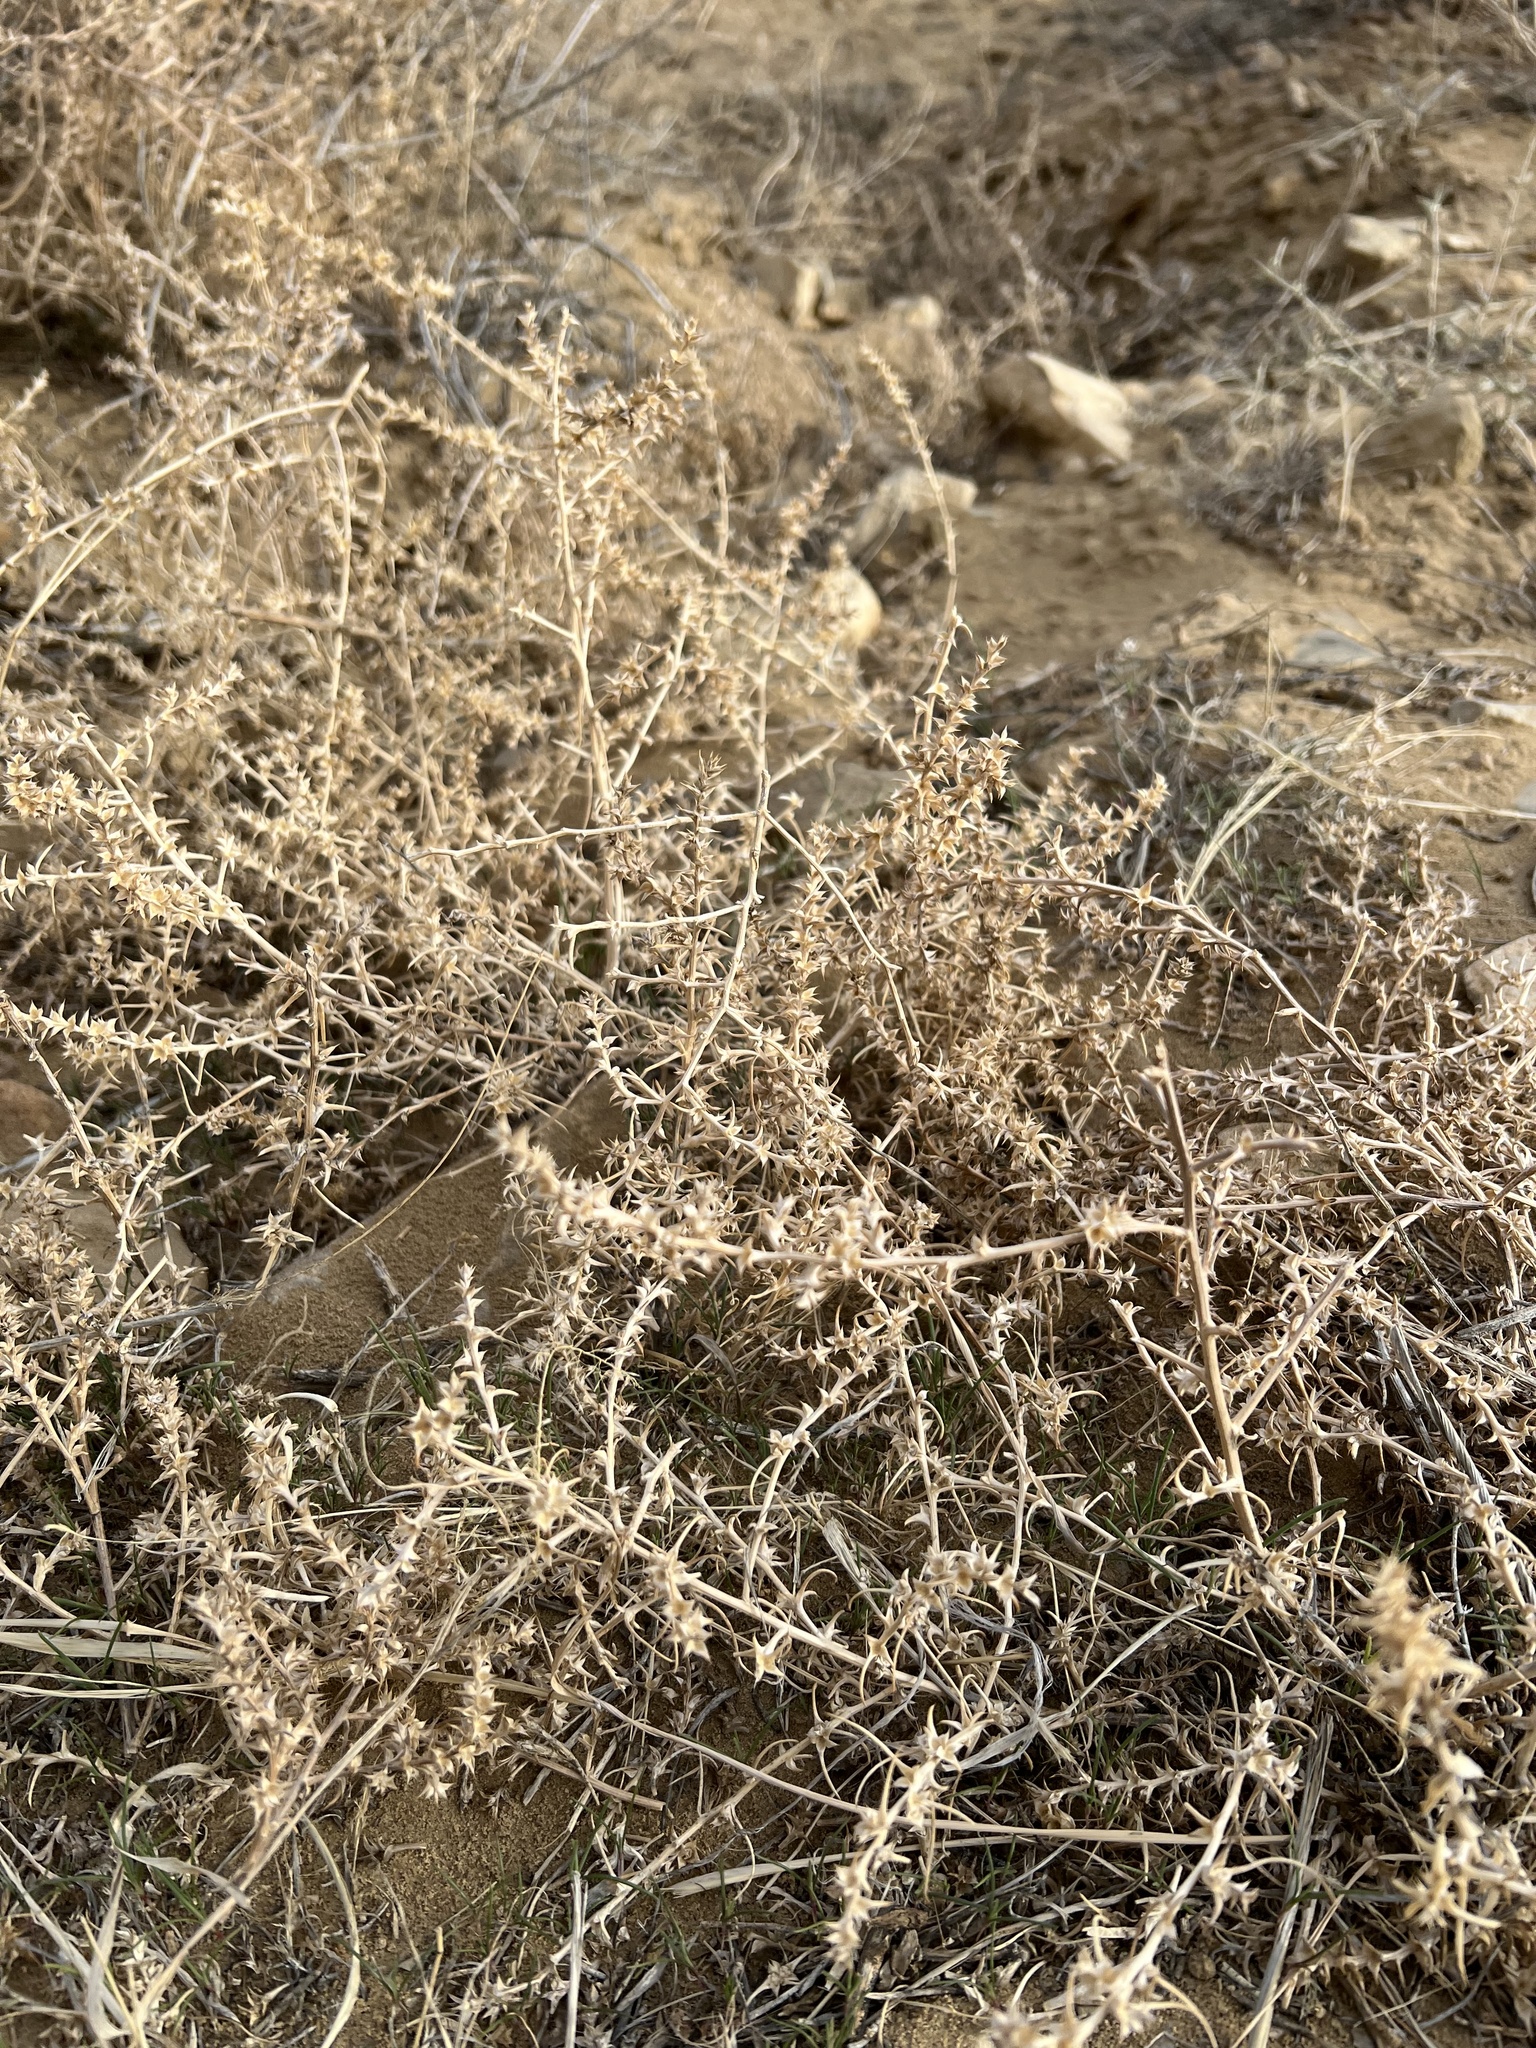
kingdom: Plantae
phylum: Tracheophyta
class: Magnoliopsida
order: Caryophyllales
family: Amaranthaceae
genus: Salsola
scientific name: Salsola tragus
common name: Prickly russian thistle
